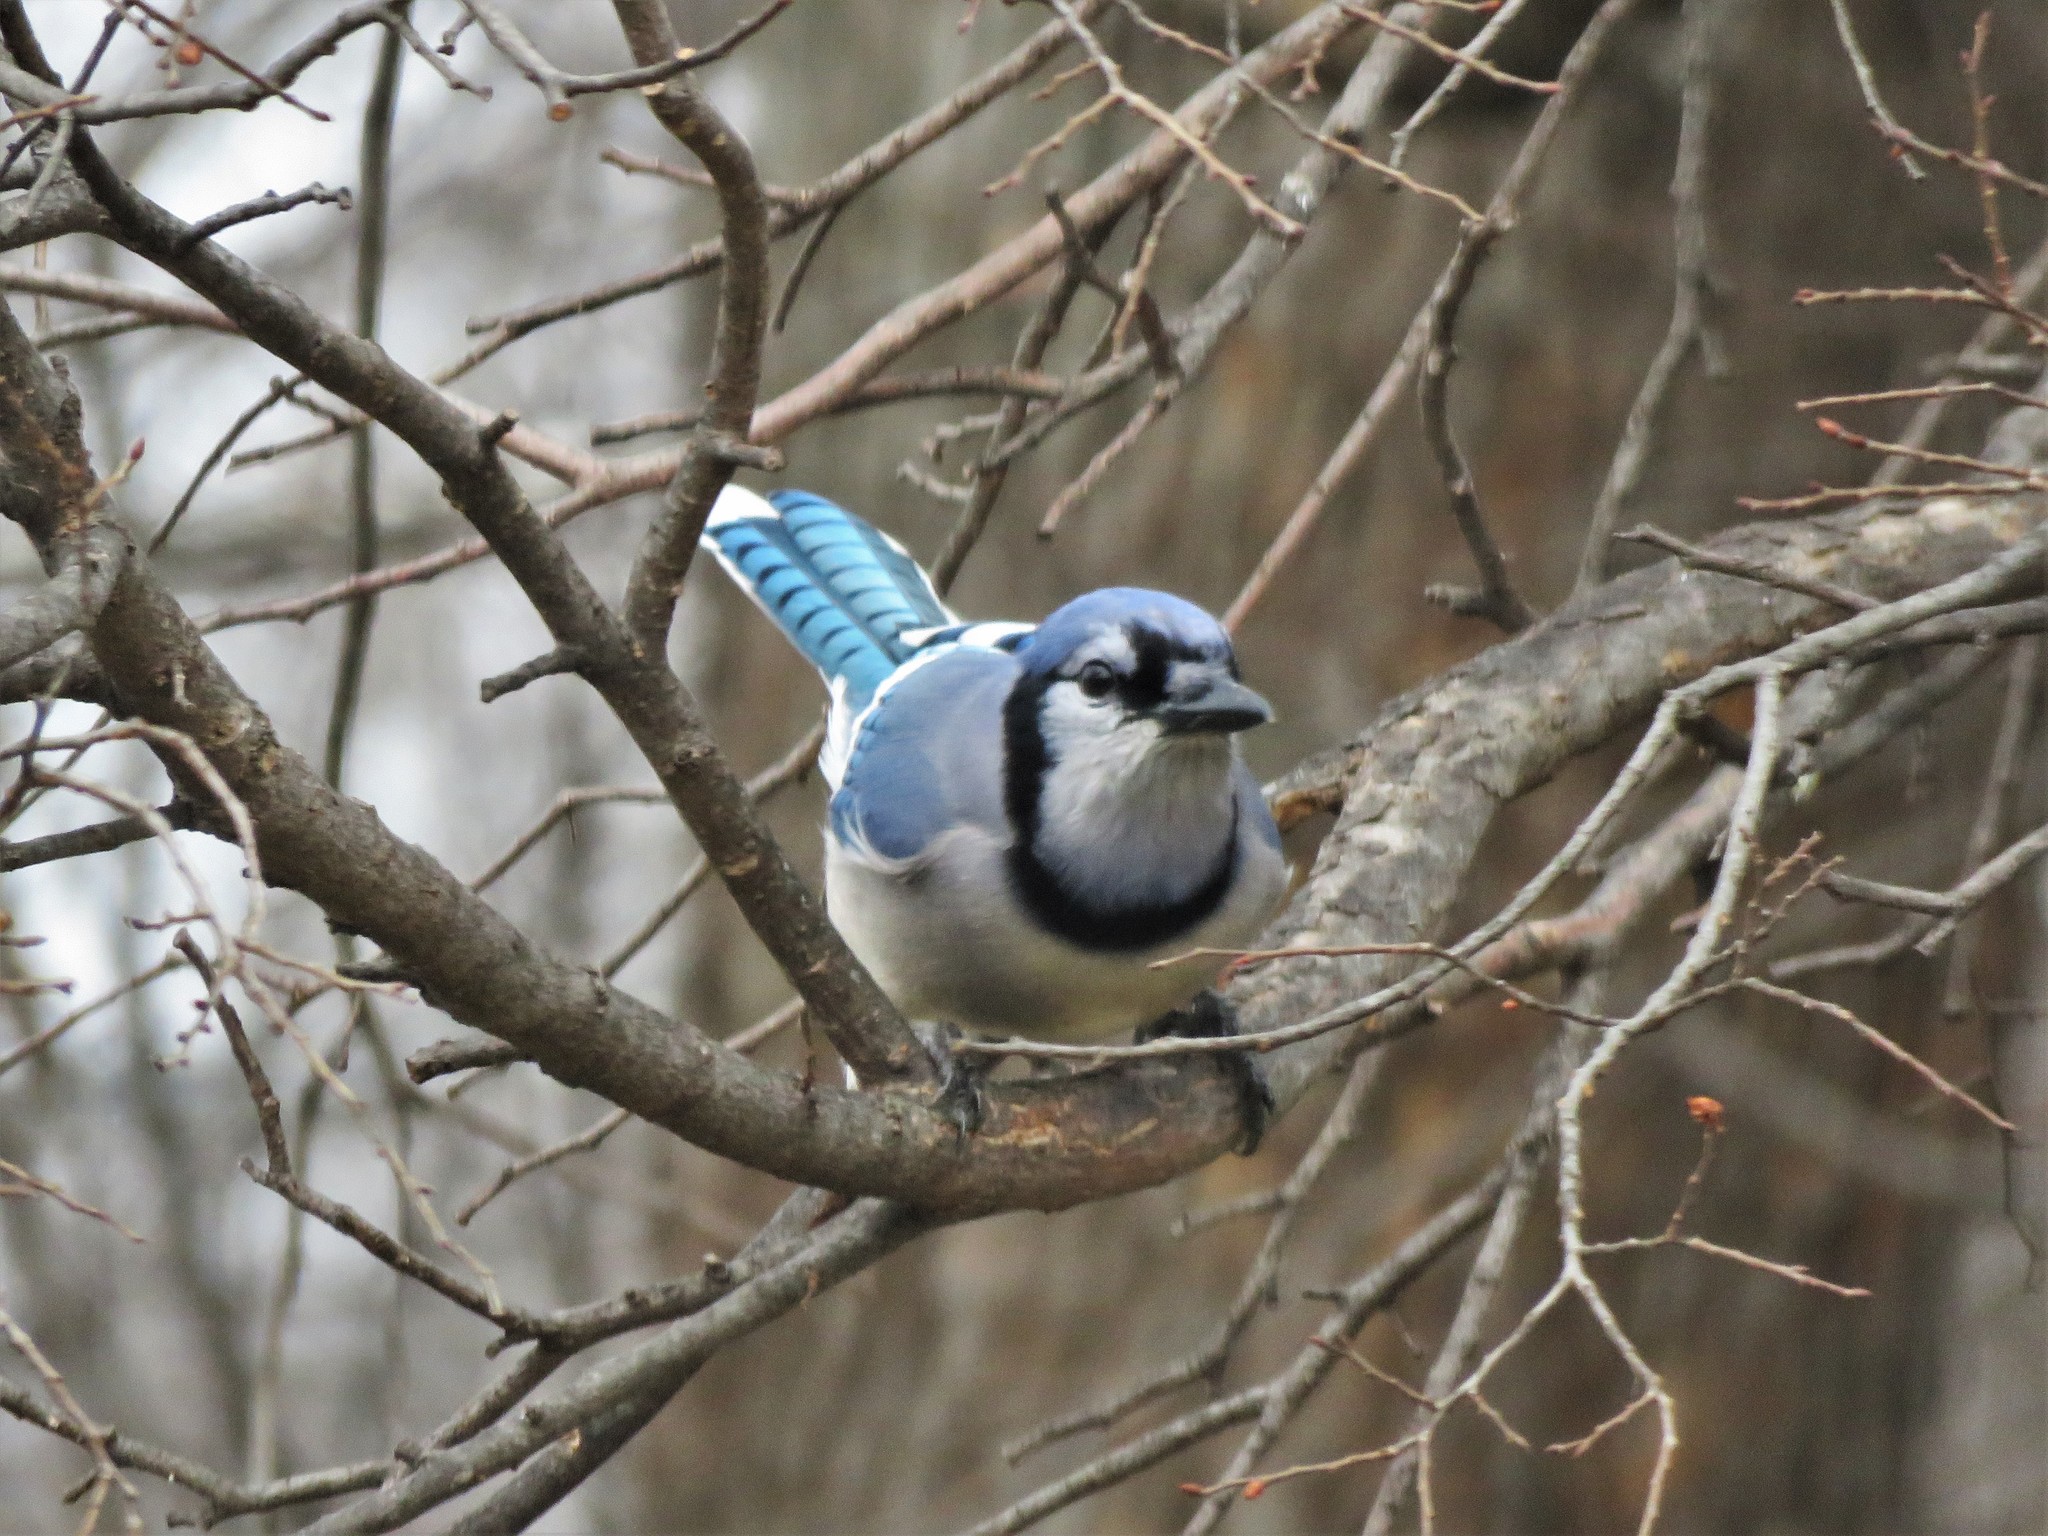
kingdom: Animalia
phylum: Chordata
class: Aves
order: Passeriformes
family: Corvidae
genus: Cyanocitta
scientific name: Cyanocitta cristata
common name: Blue jay
